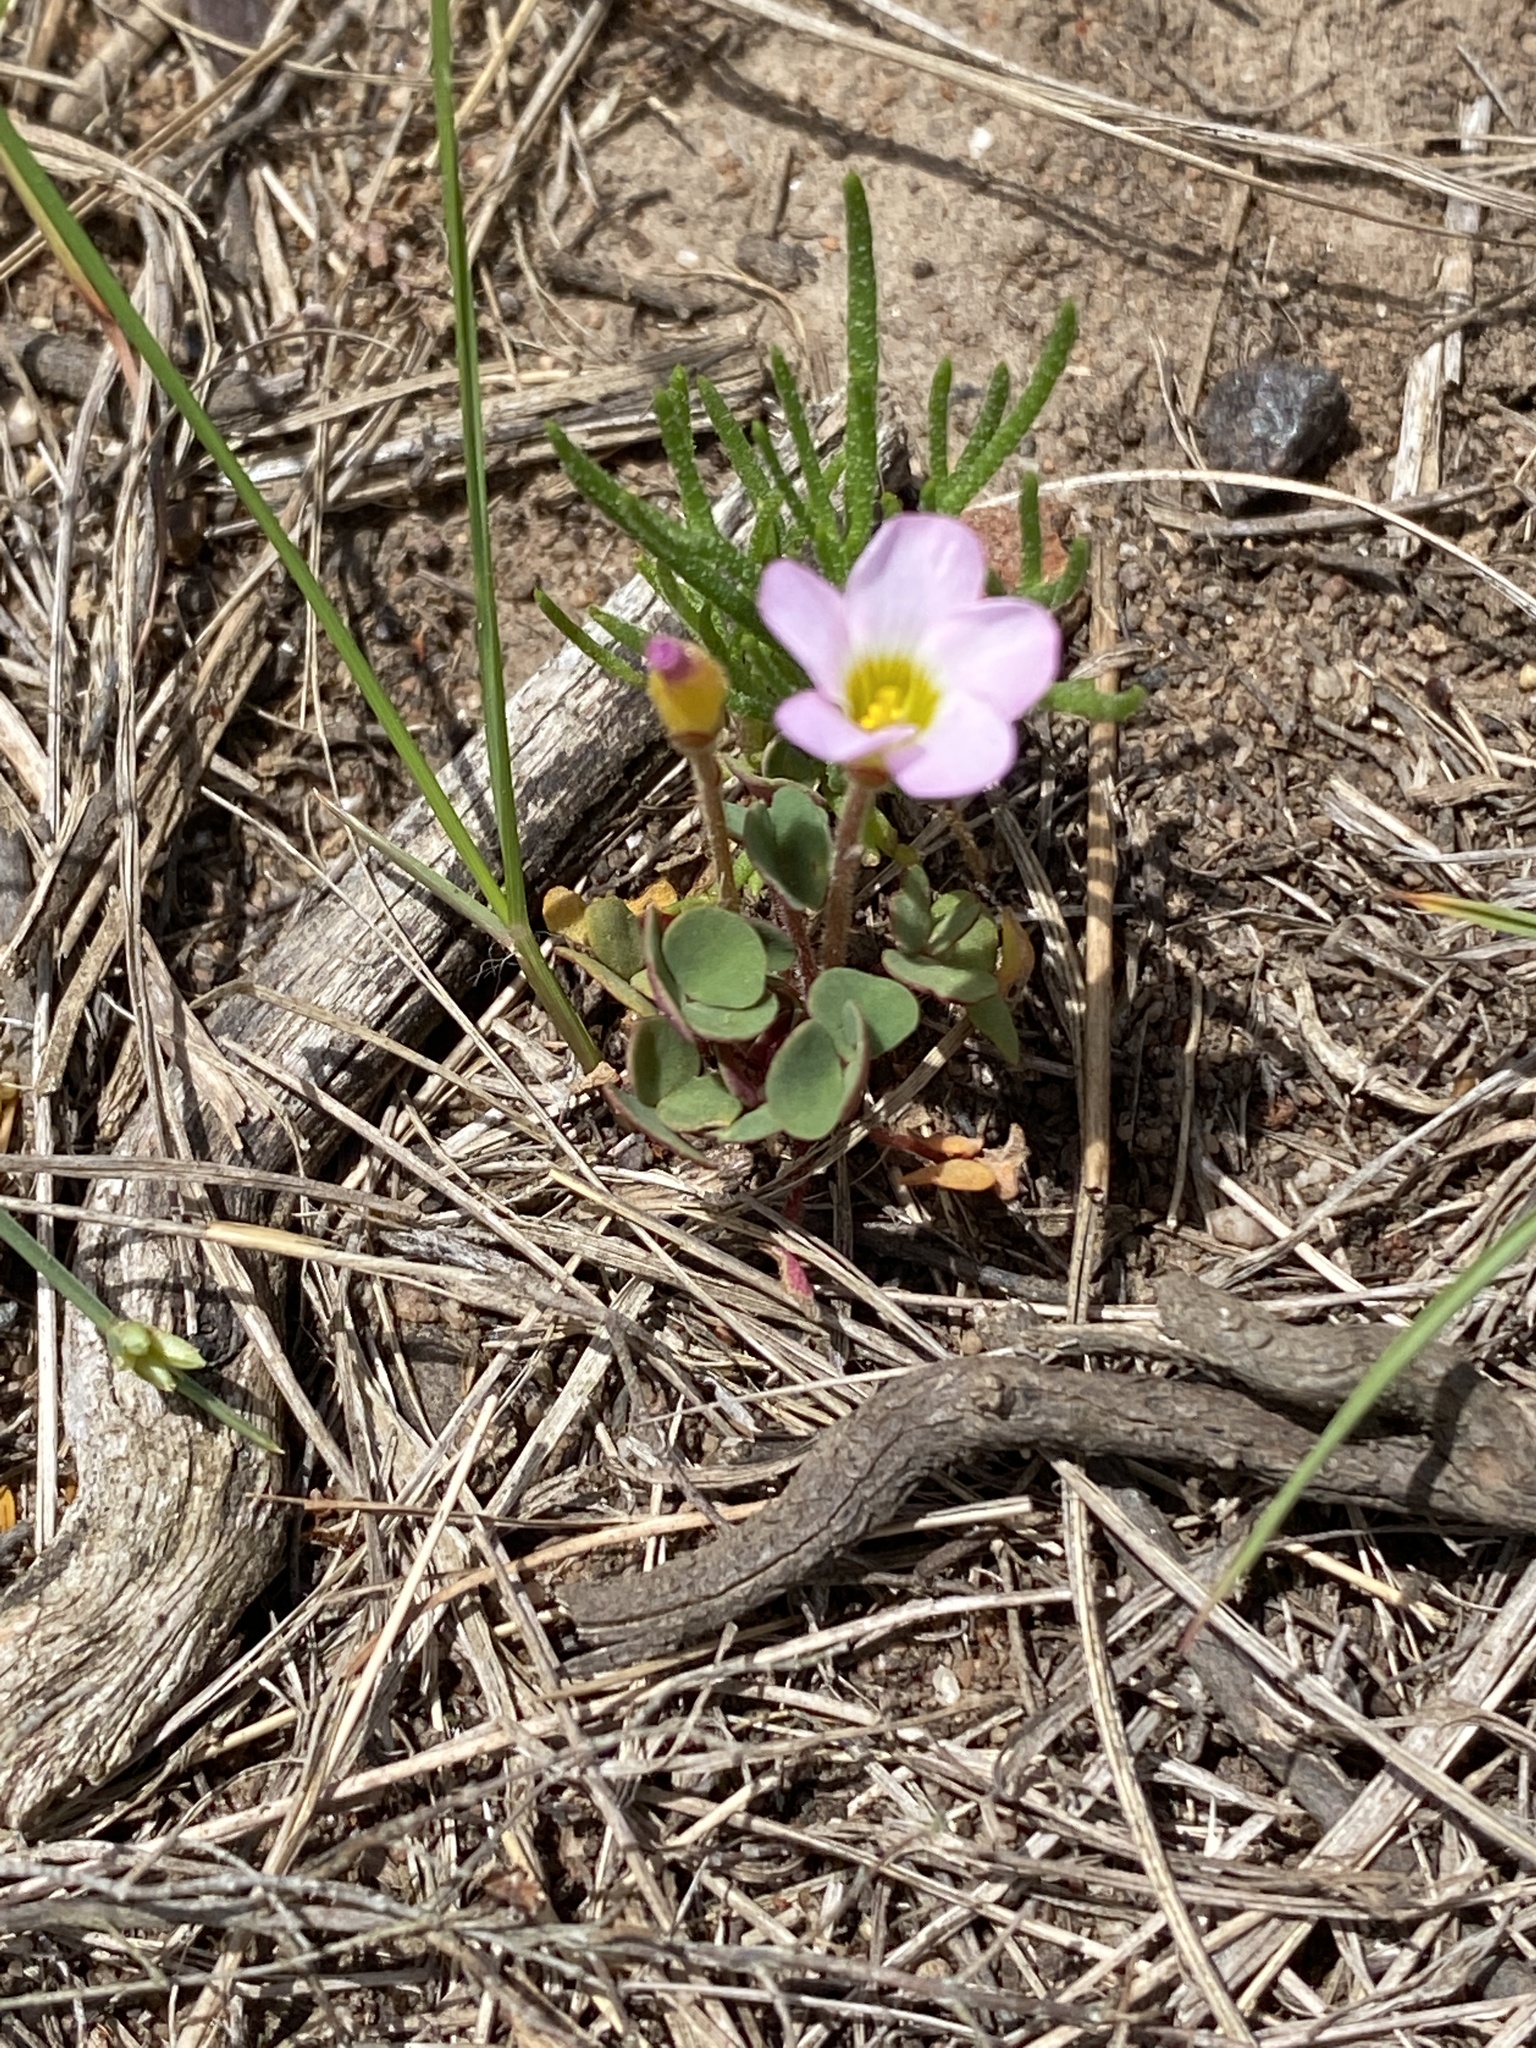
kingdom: Plantae
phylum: Tracheophyta
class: Magnoliopsida
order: Oxalidales
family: Oxalidaceae
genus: Oxalis
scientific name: Oxalis punctata
